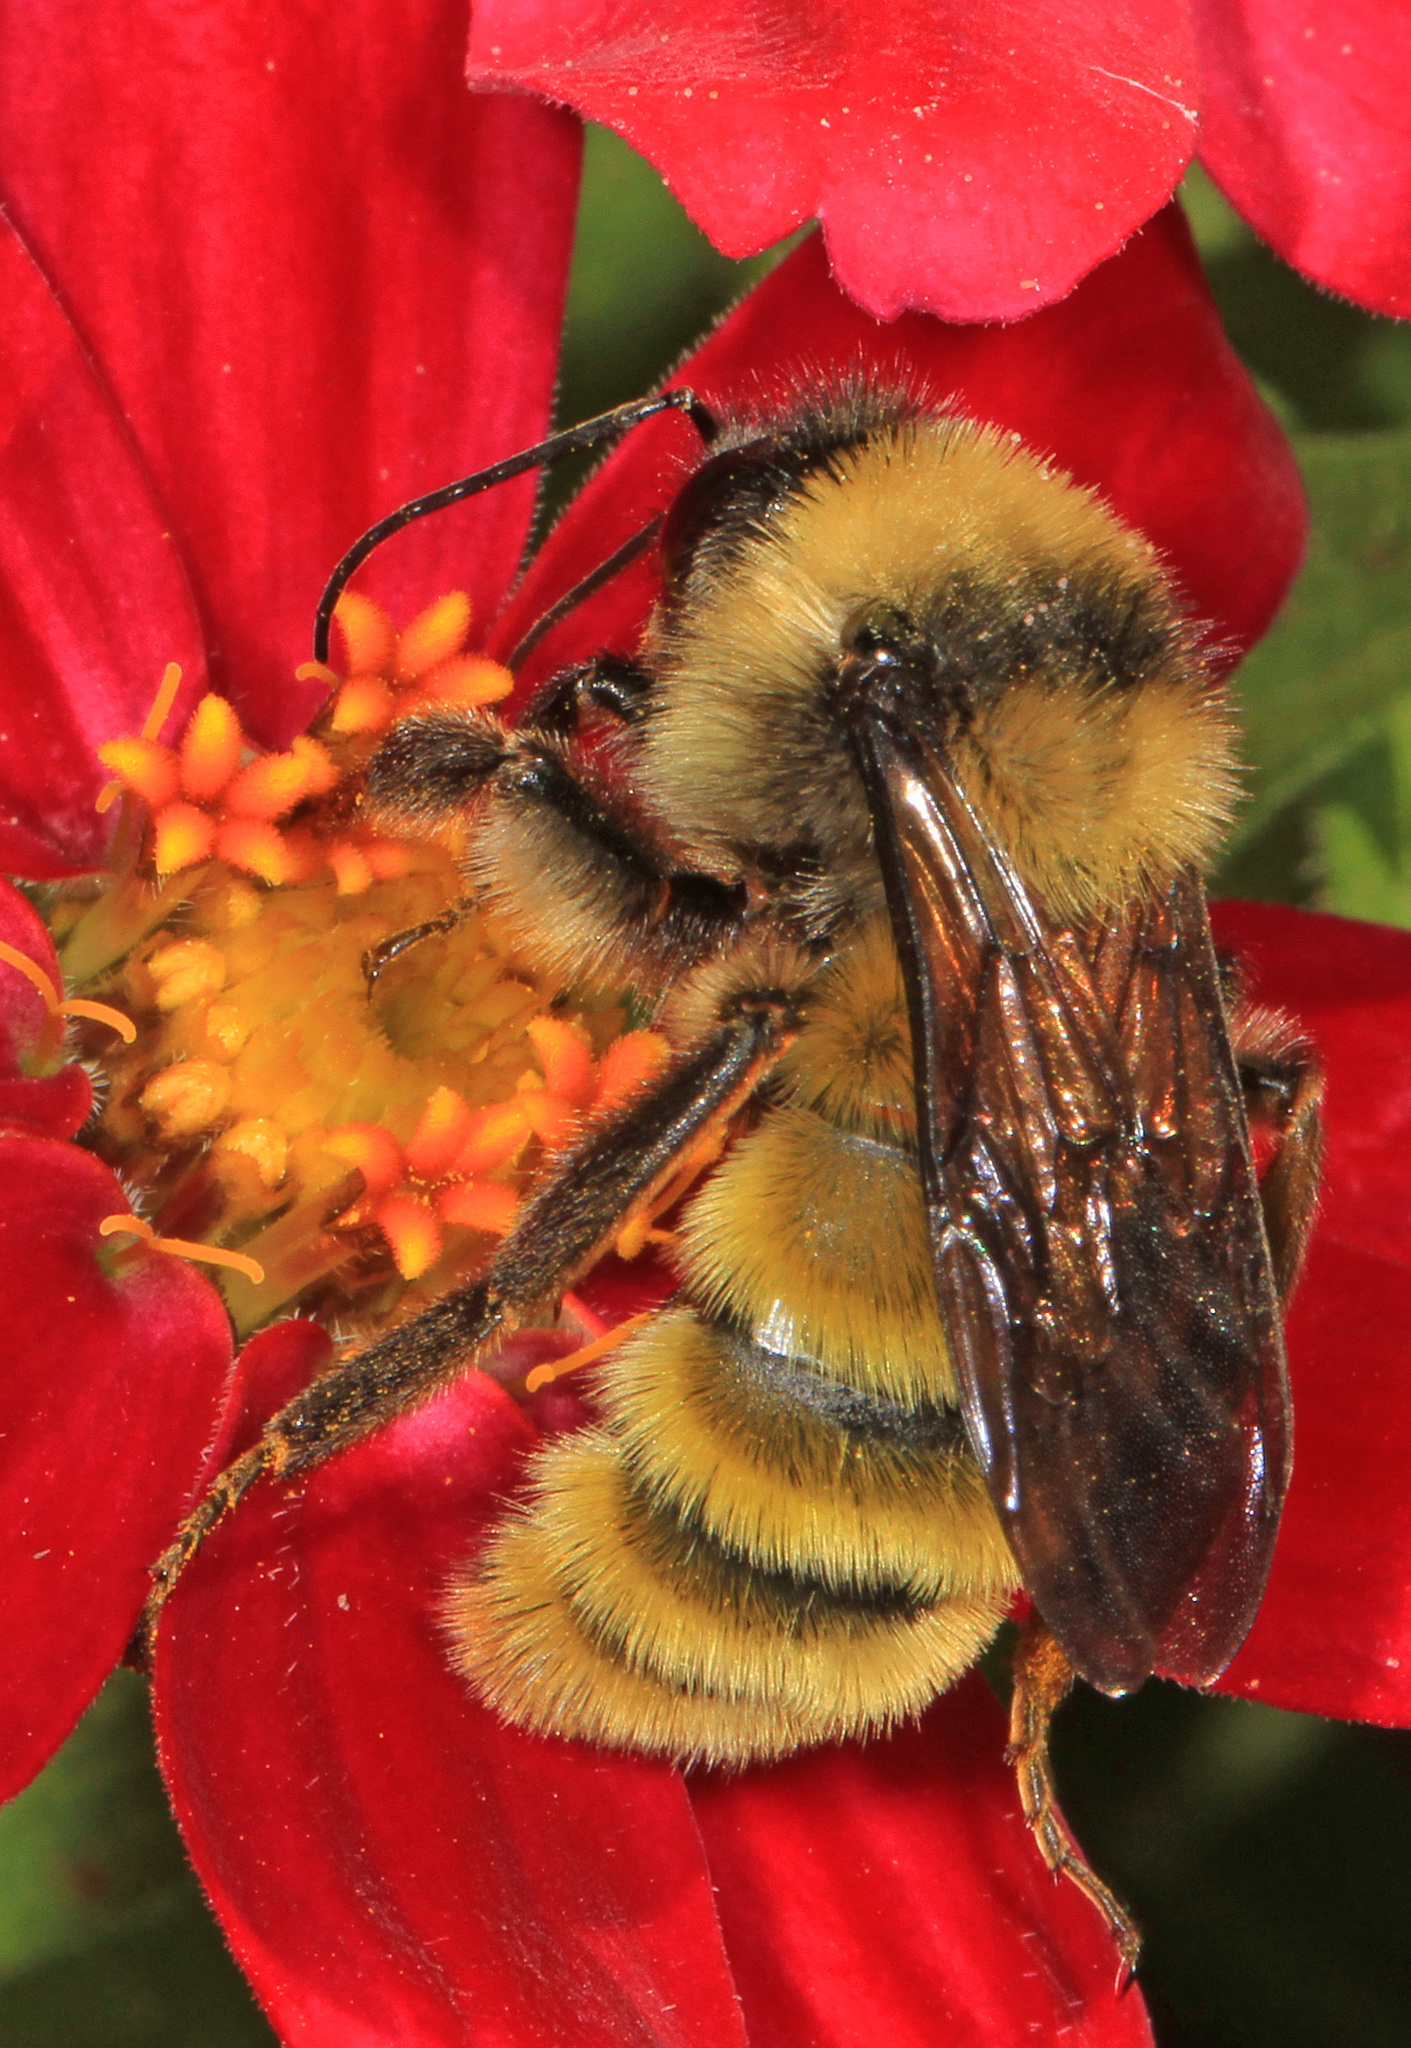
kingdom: Animalia
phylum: Arthropoda
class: Insecta
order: Hymenoptera
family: Apidae
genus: Bombus
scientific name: Bombus pensylvanicus
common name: Bumble bee
